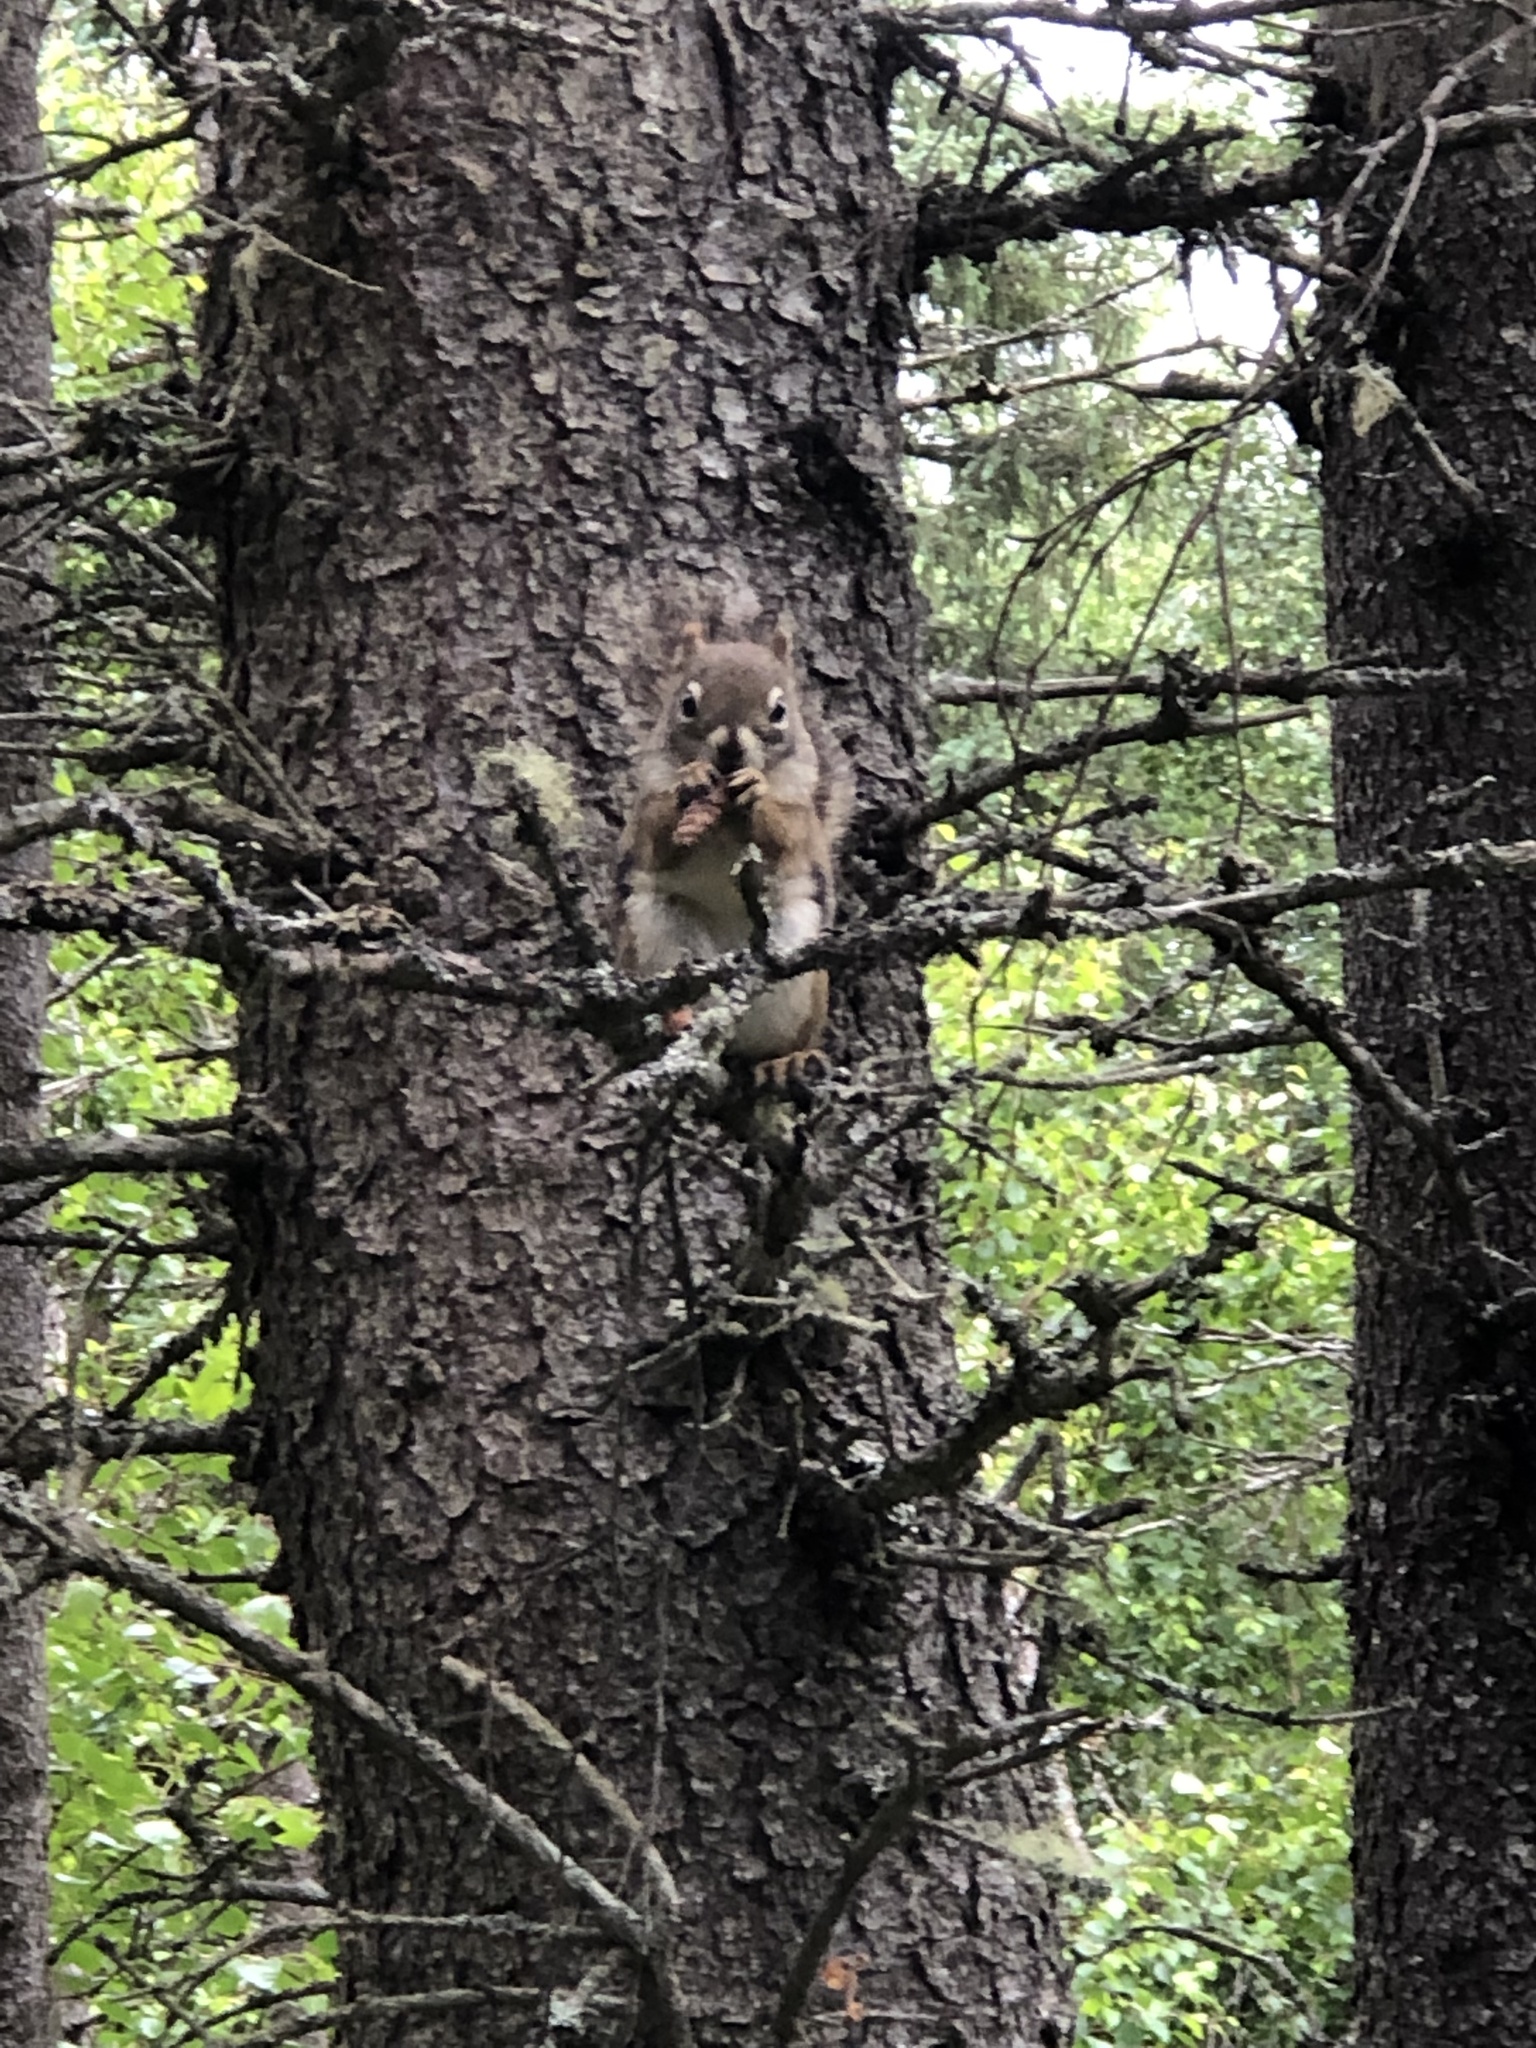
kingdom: Animalia
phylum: Chordata
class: Mammalia
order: Rodentia
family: Sciuridae
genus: Tamiasciurus
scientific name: Tamiasciurus hudsonicus
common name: Red squirrel
